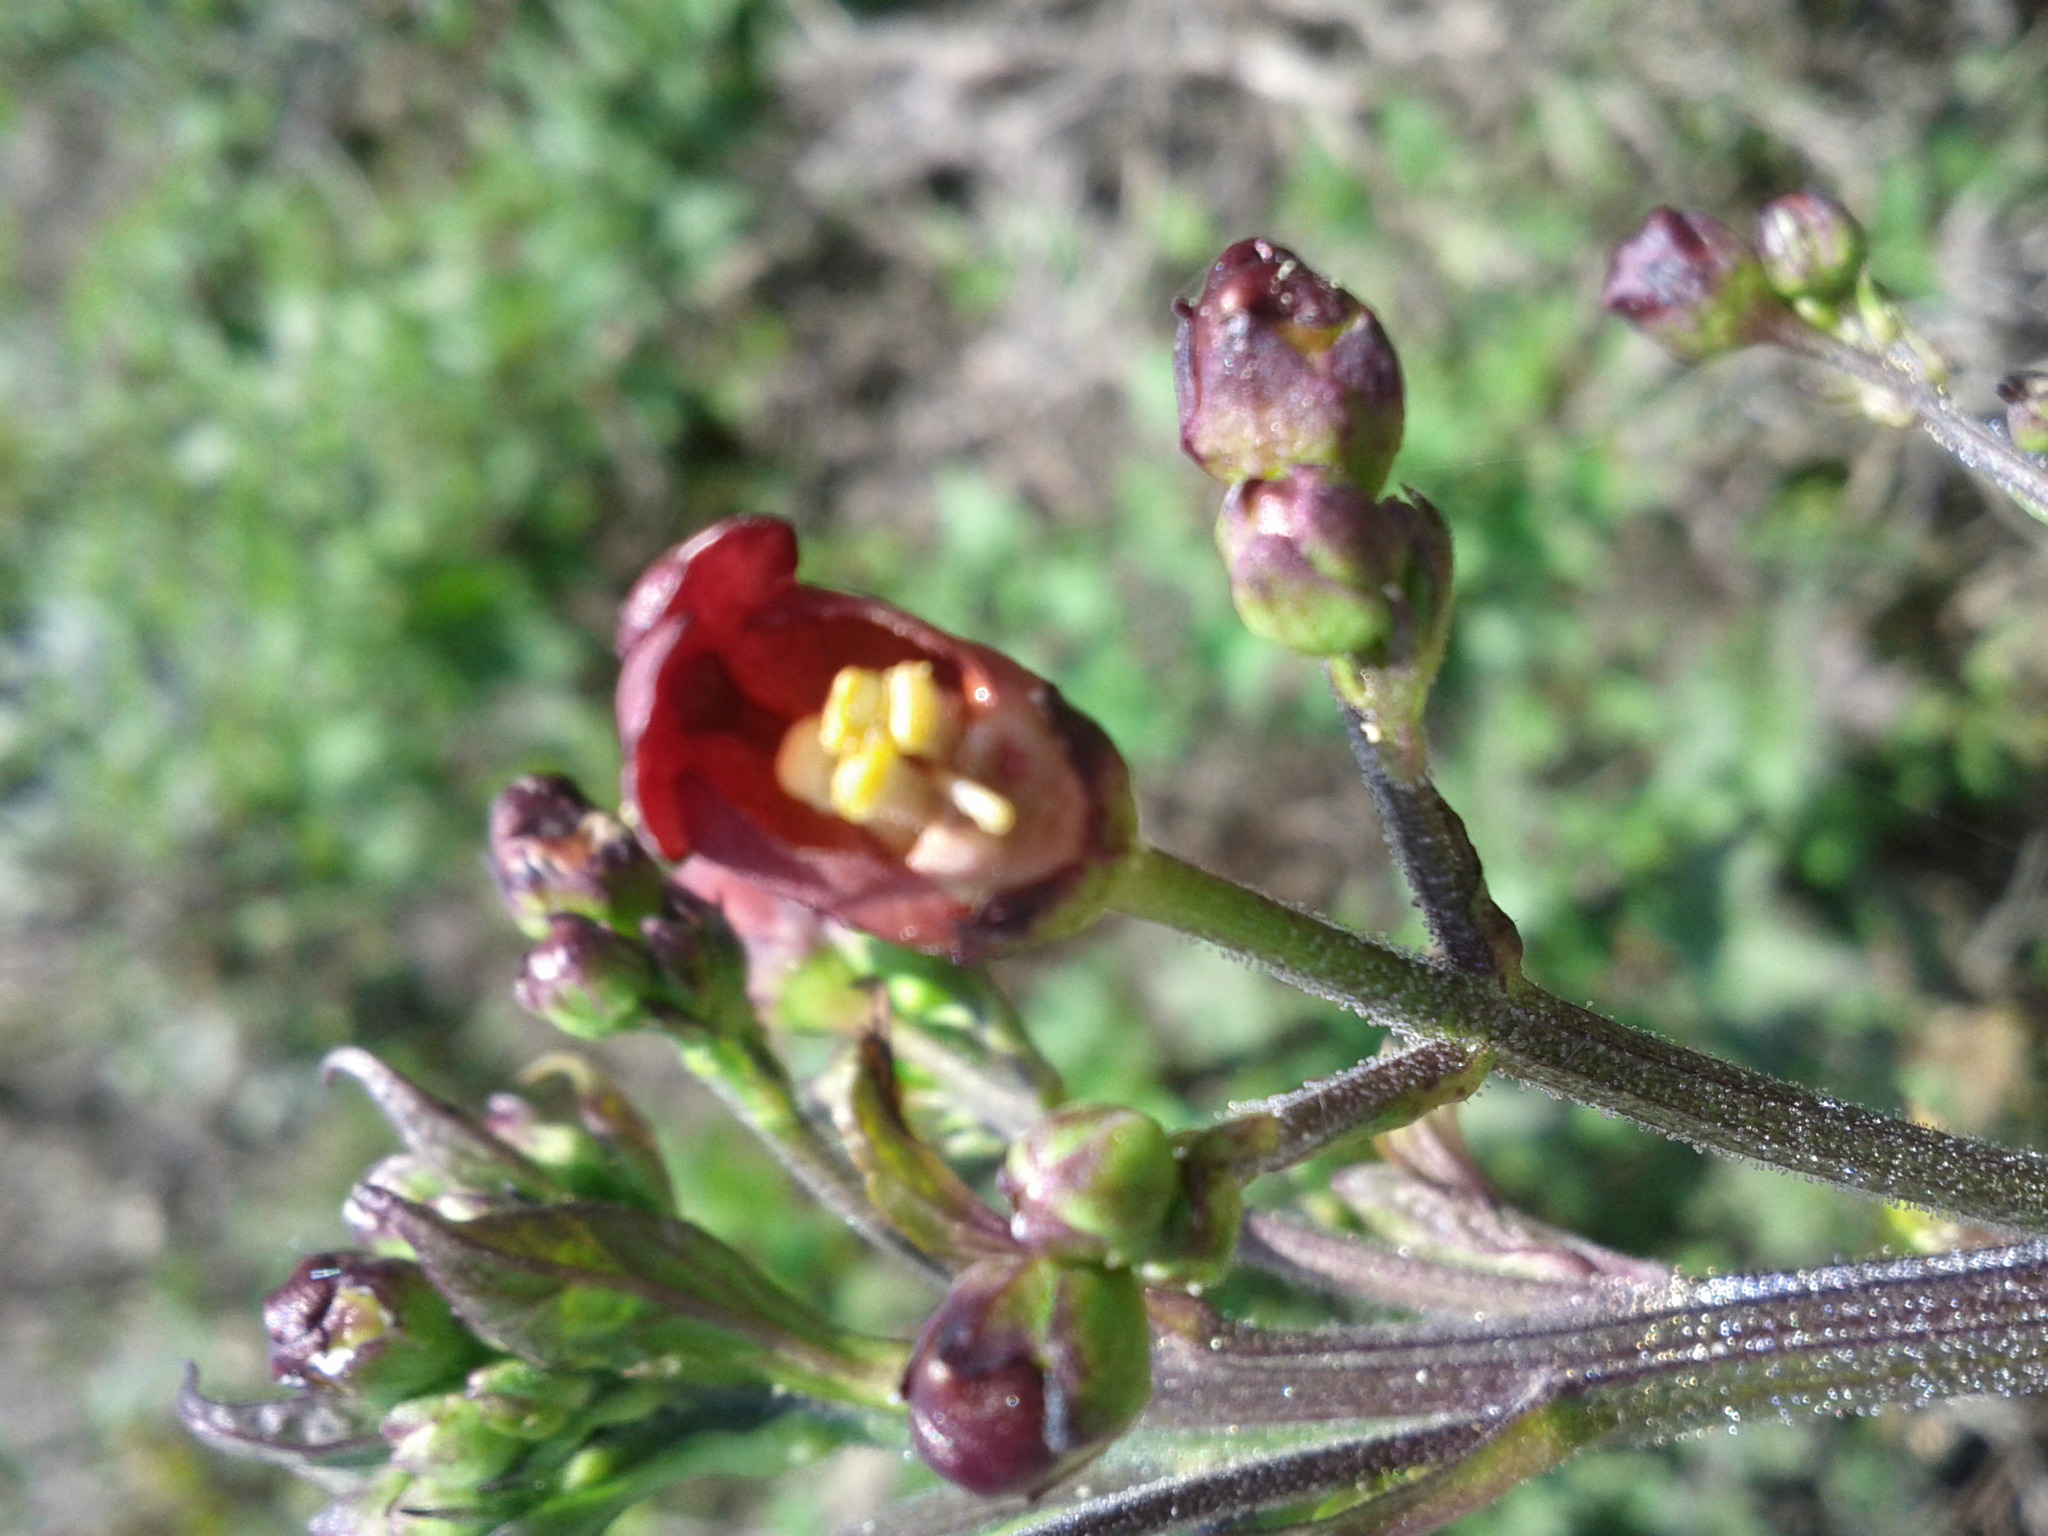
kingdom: Plantae
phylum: Tracheophyta
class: Magnoliopsida
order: Lamiales
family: Scrophulariaceae
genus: Scrophularia
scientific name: Scrophularia californica
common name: California figwort
